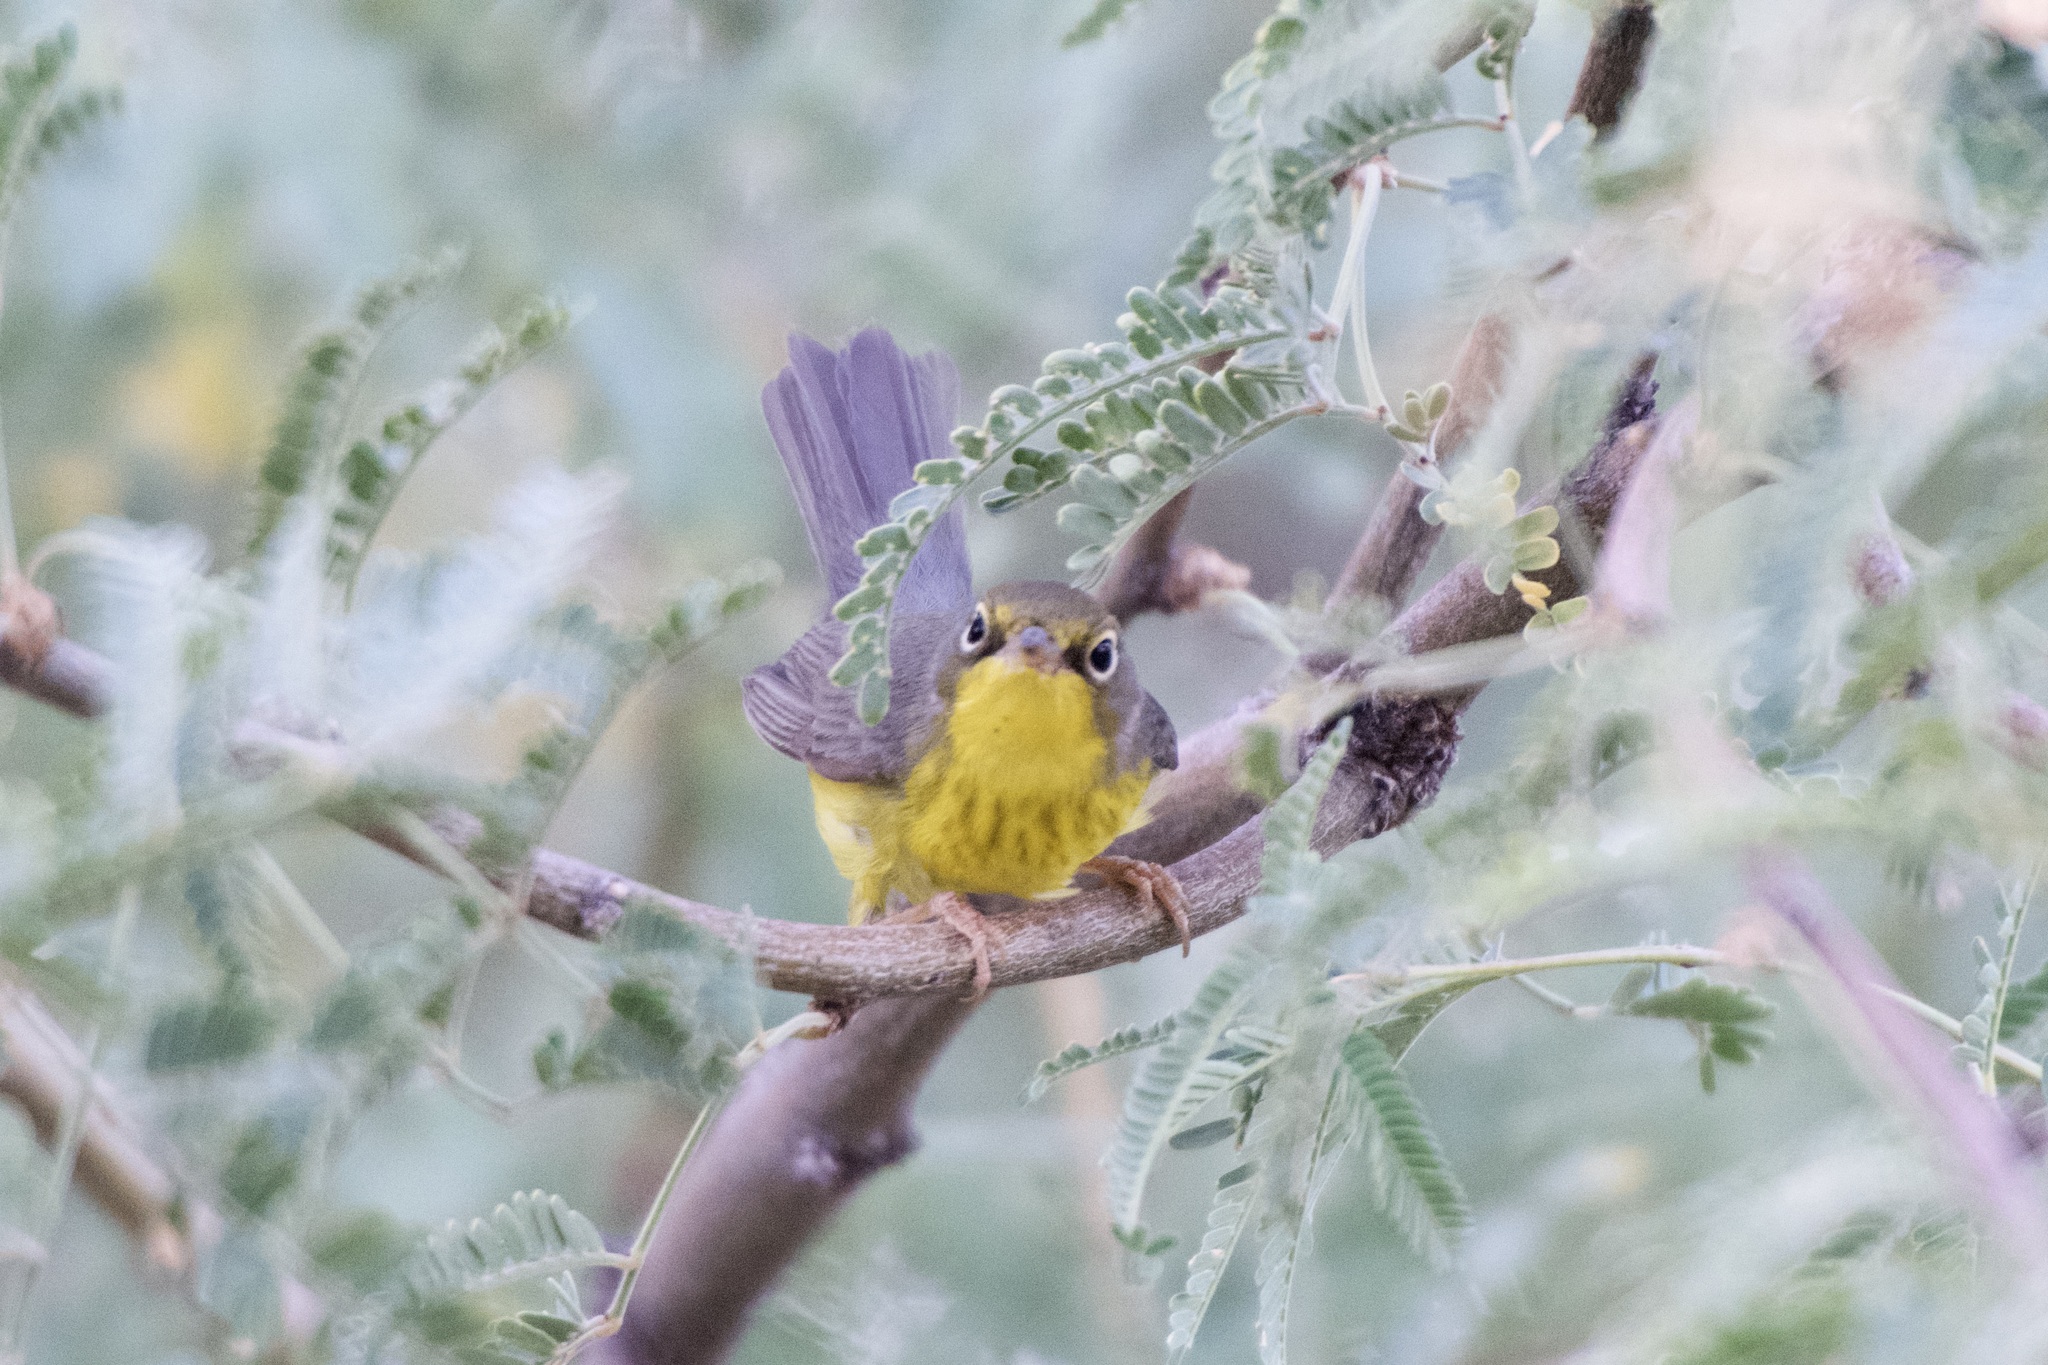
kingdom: Animalia
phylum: Chordata
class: Aves
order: Passeriformes
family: Parulidae
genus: Cardellina
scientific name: Cardellina canadensis
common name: Canada warbler
